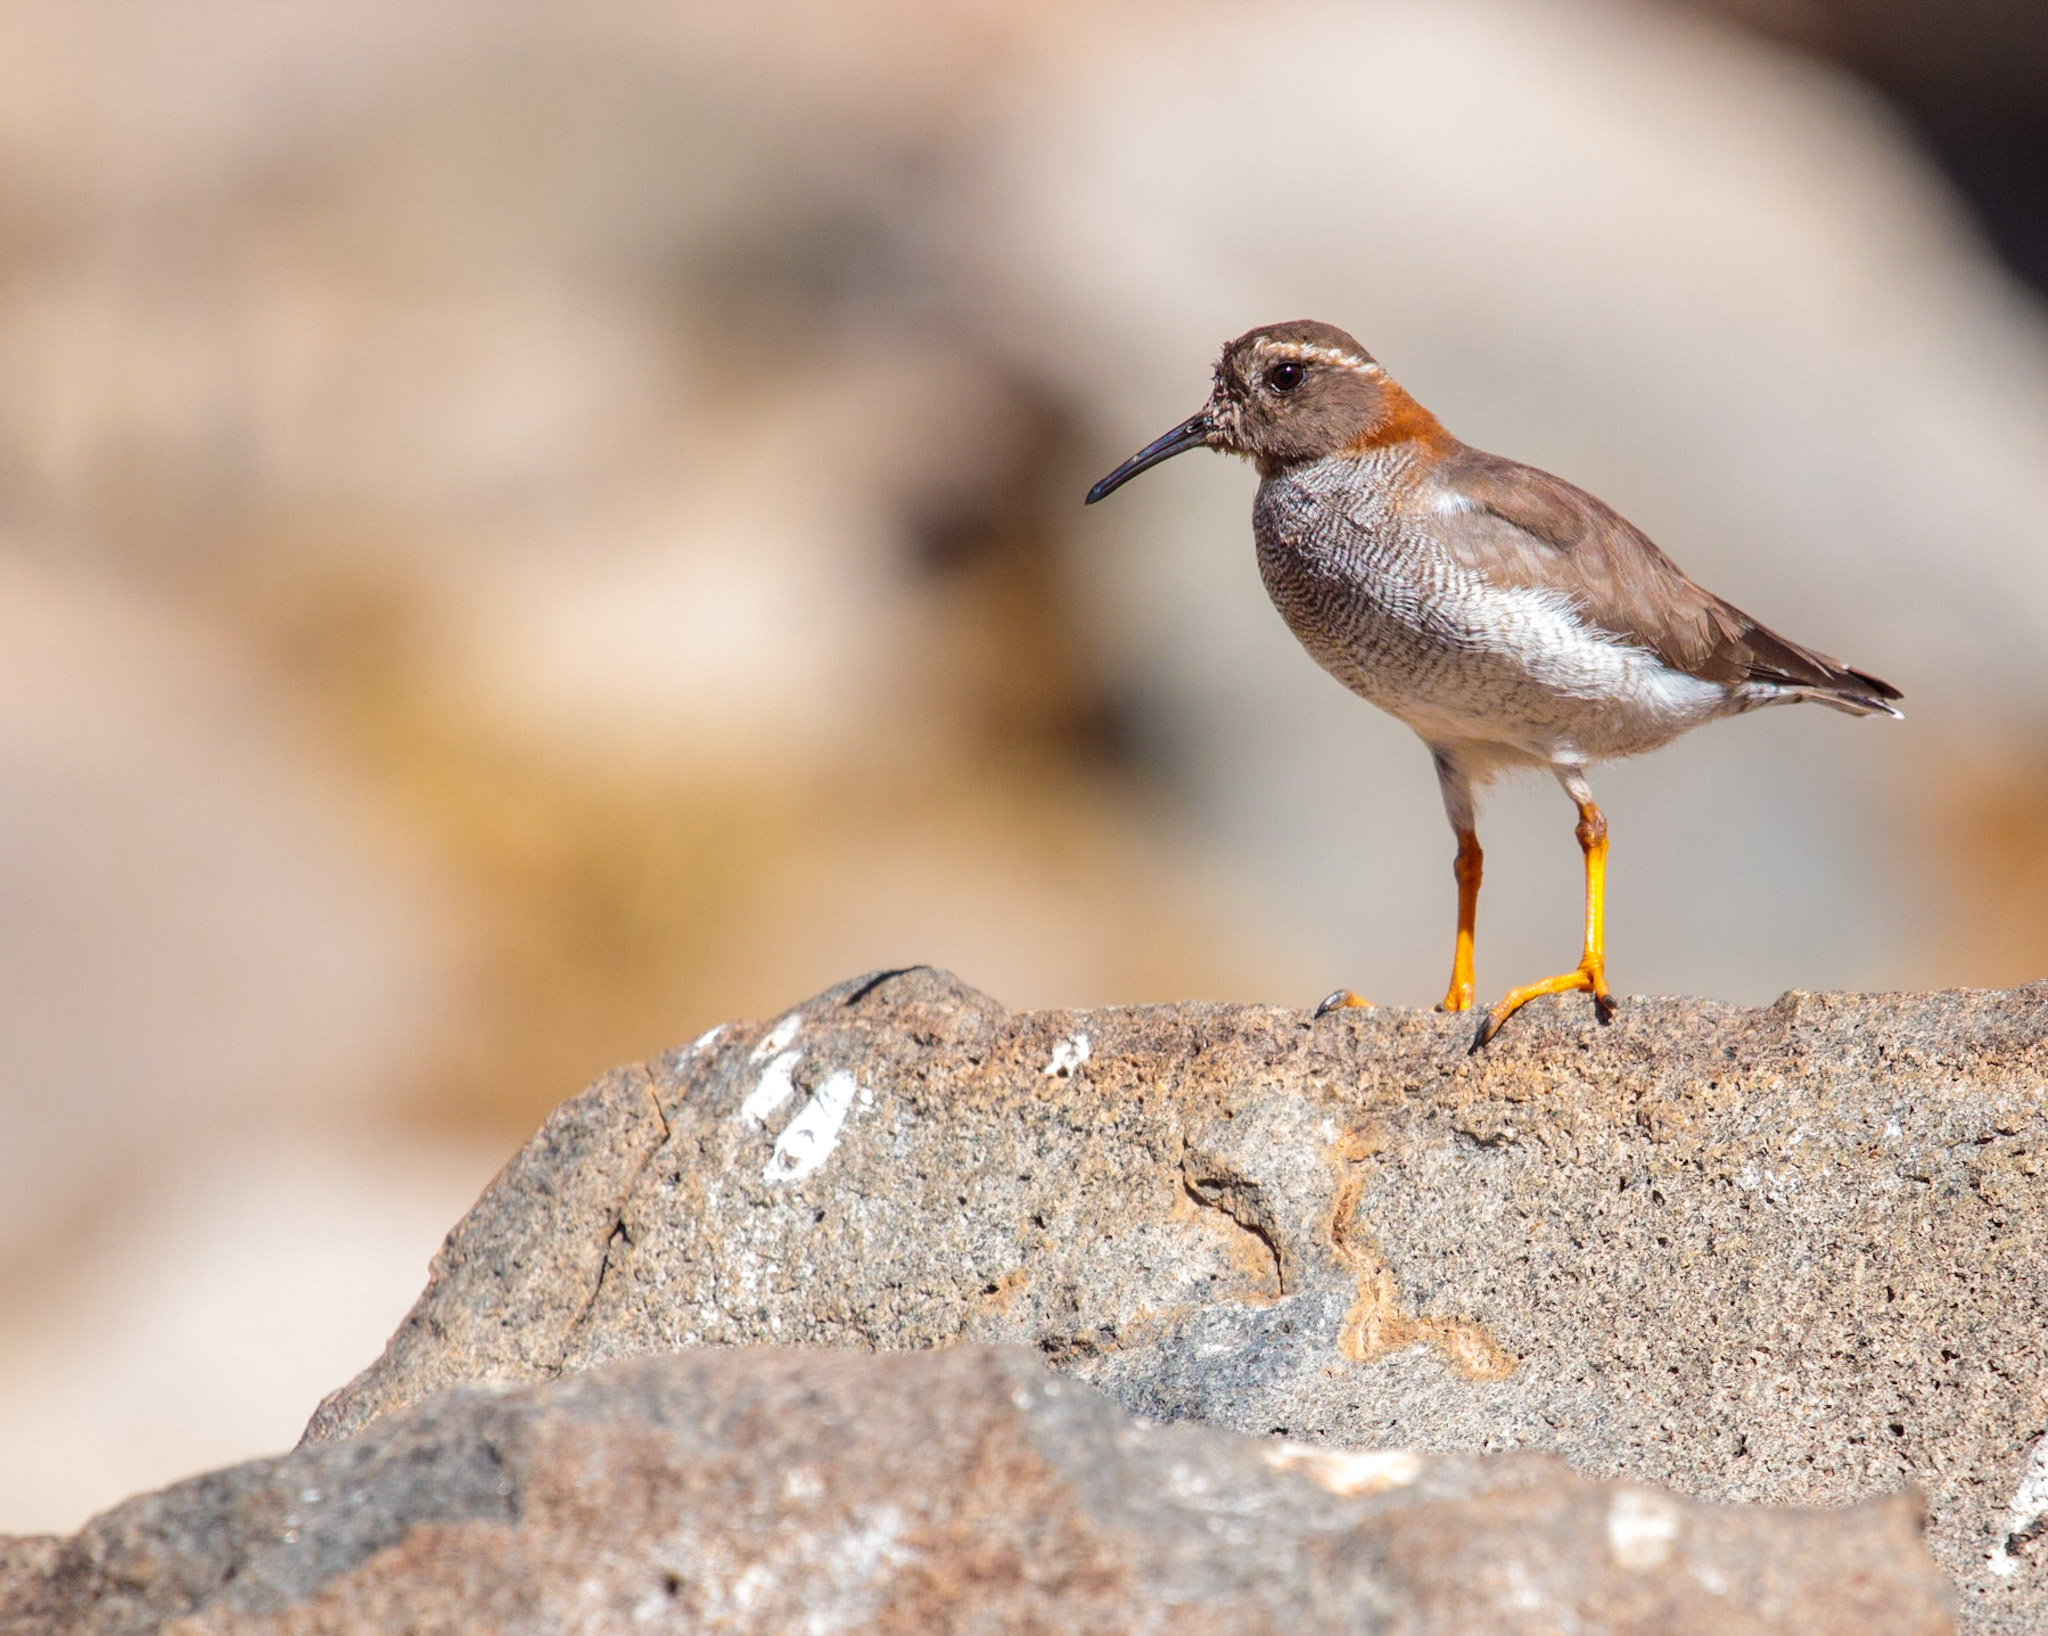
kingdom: Animalia
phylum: Chordata
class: Aves
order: Charadriiformes
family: Charadriidae
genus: Phegornis
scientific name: Phegornis mitchellii
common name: Diademed sandpiper-plover
